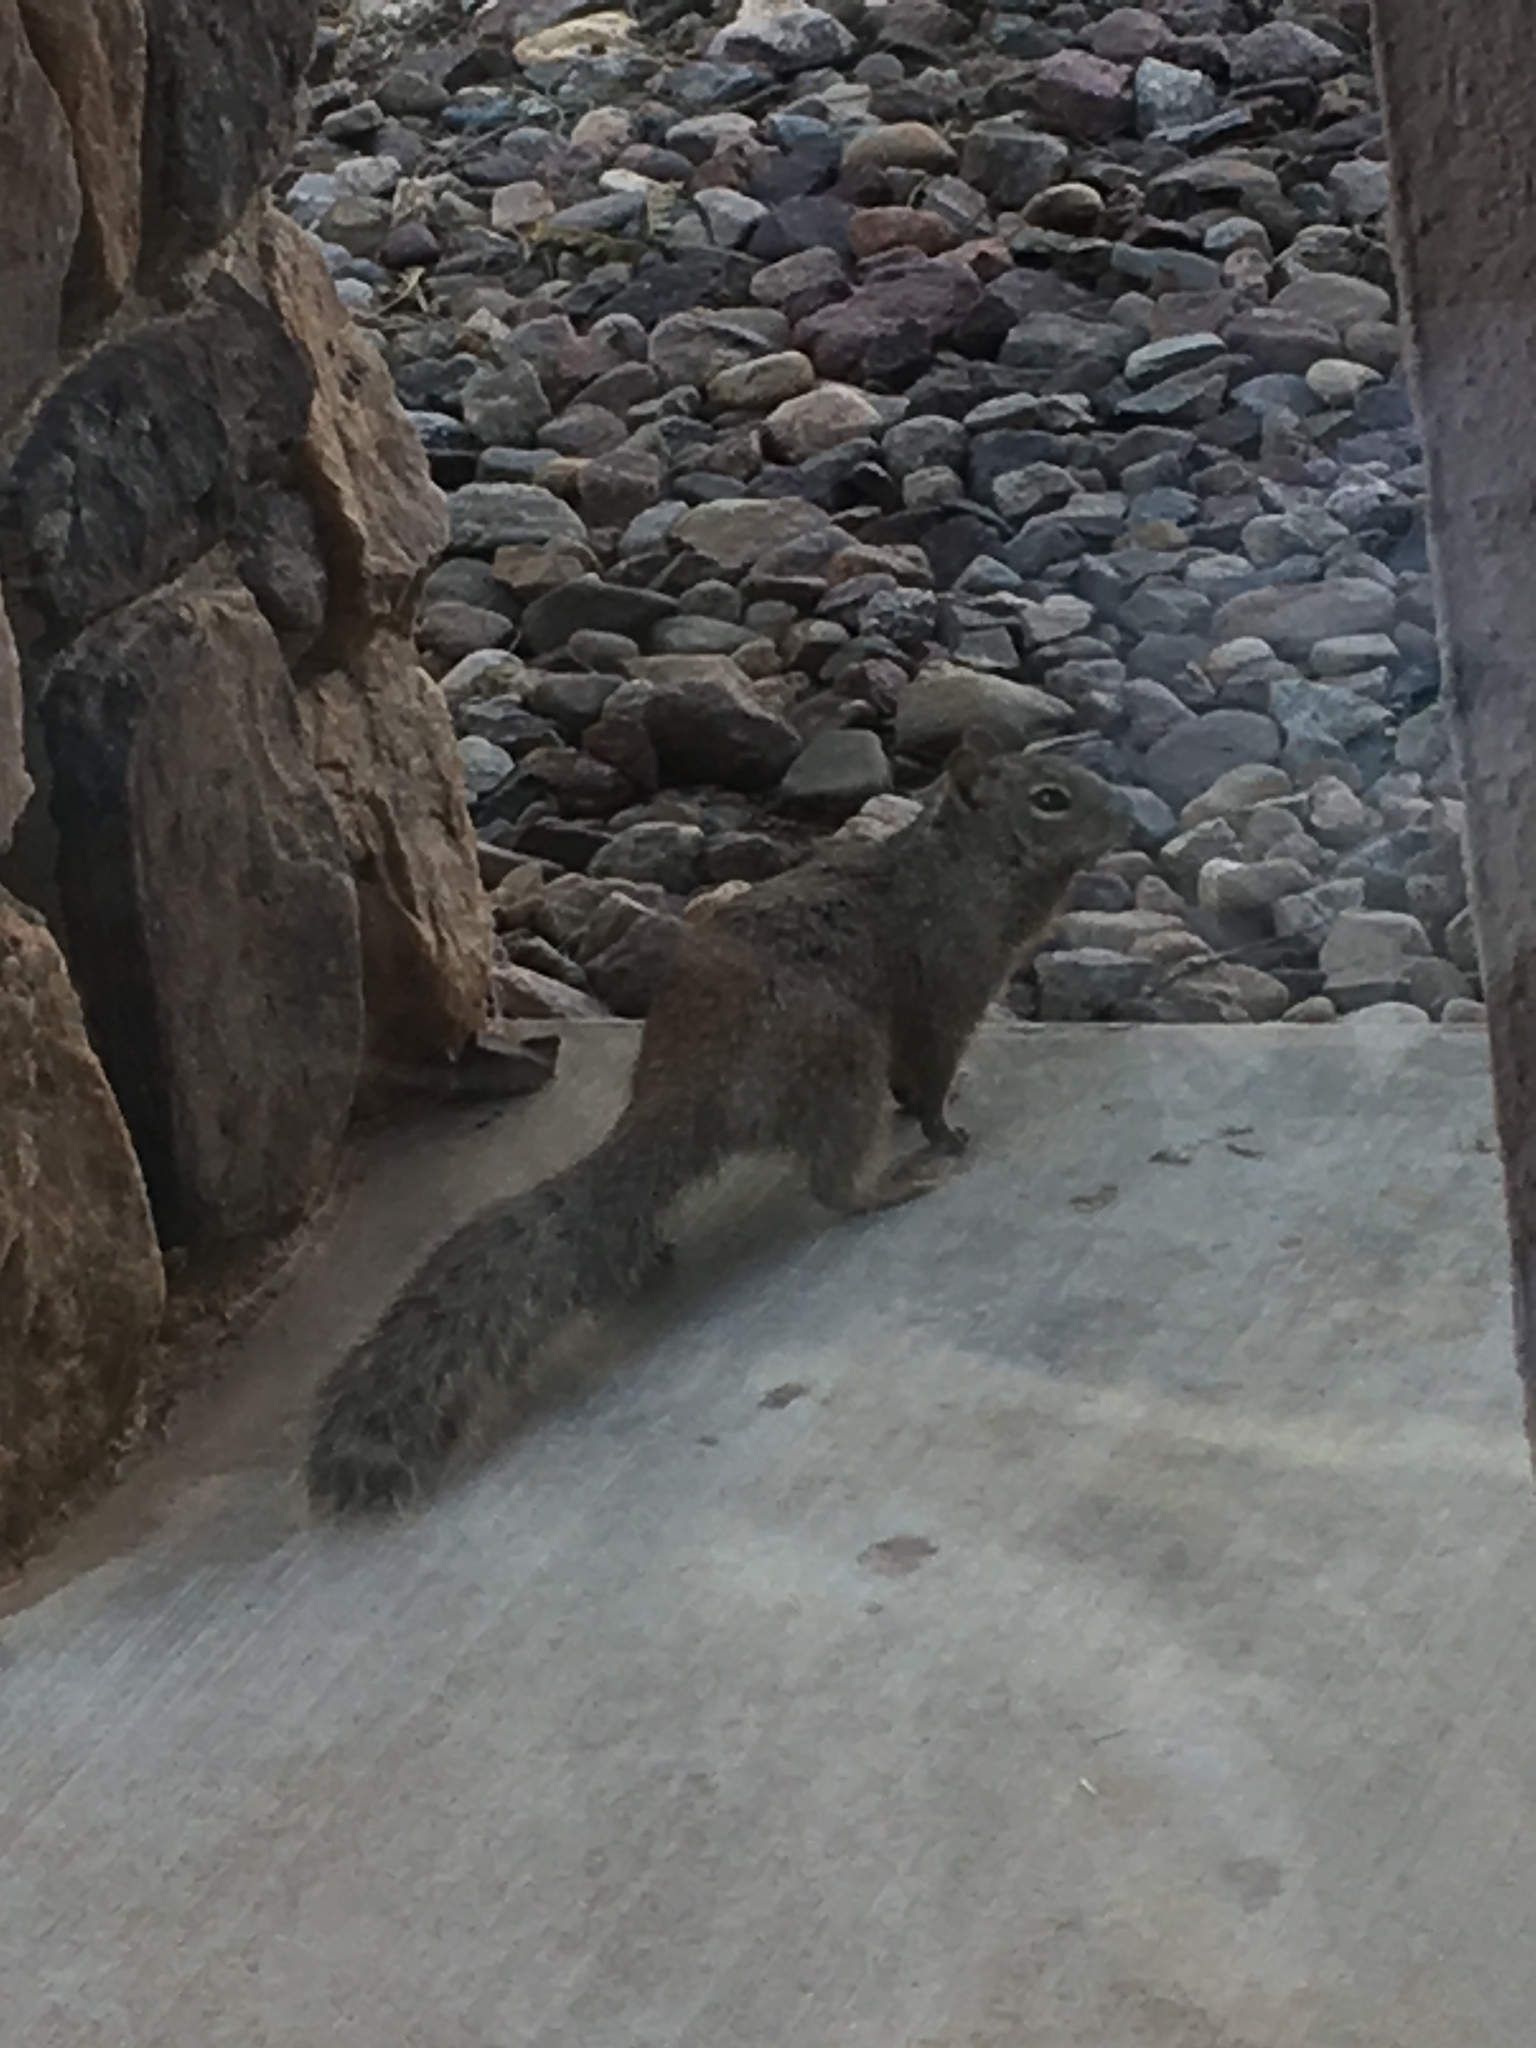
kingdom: Animalia
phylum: Chordata
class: Mammalia
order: Rodentia
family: Sciuridae
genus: Otospermophilus
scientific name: Otospermophilus variegatus
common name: Rock squirrel
